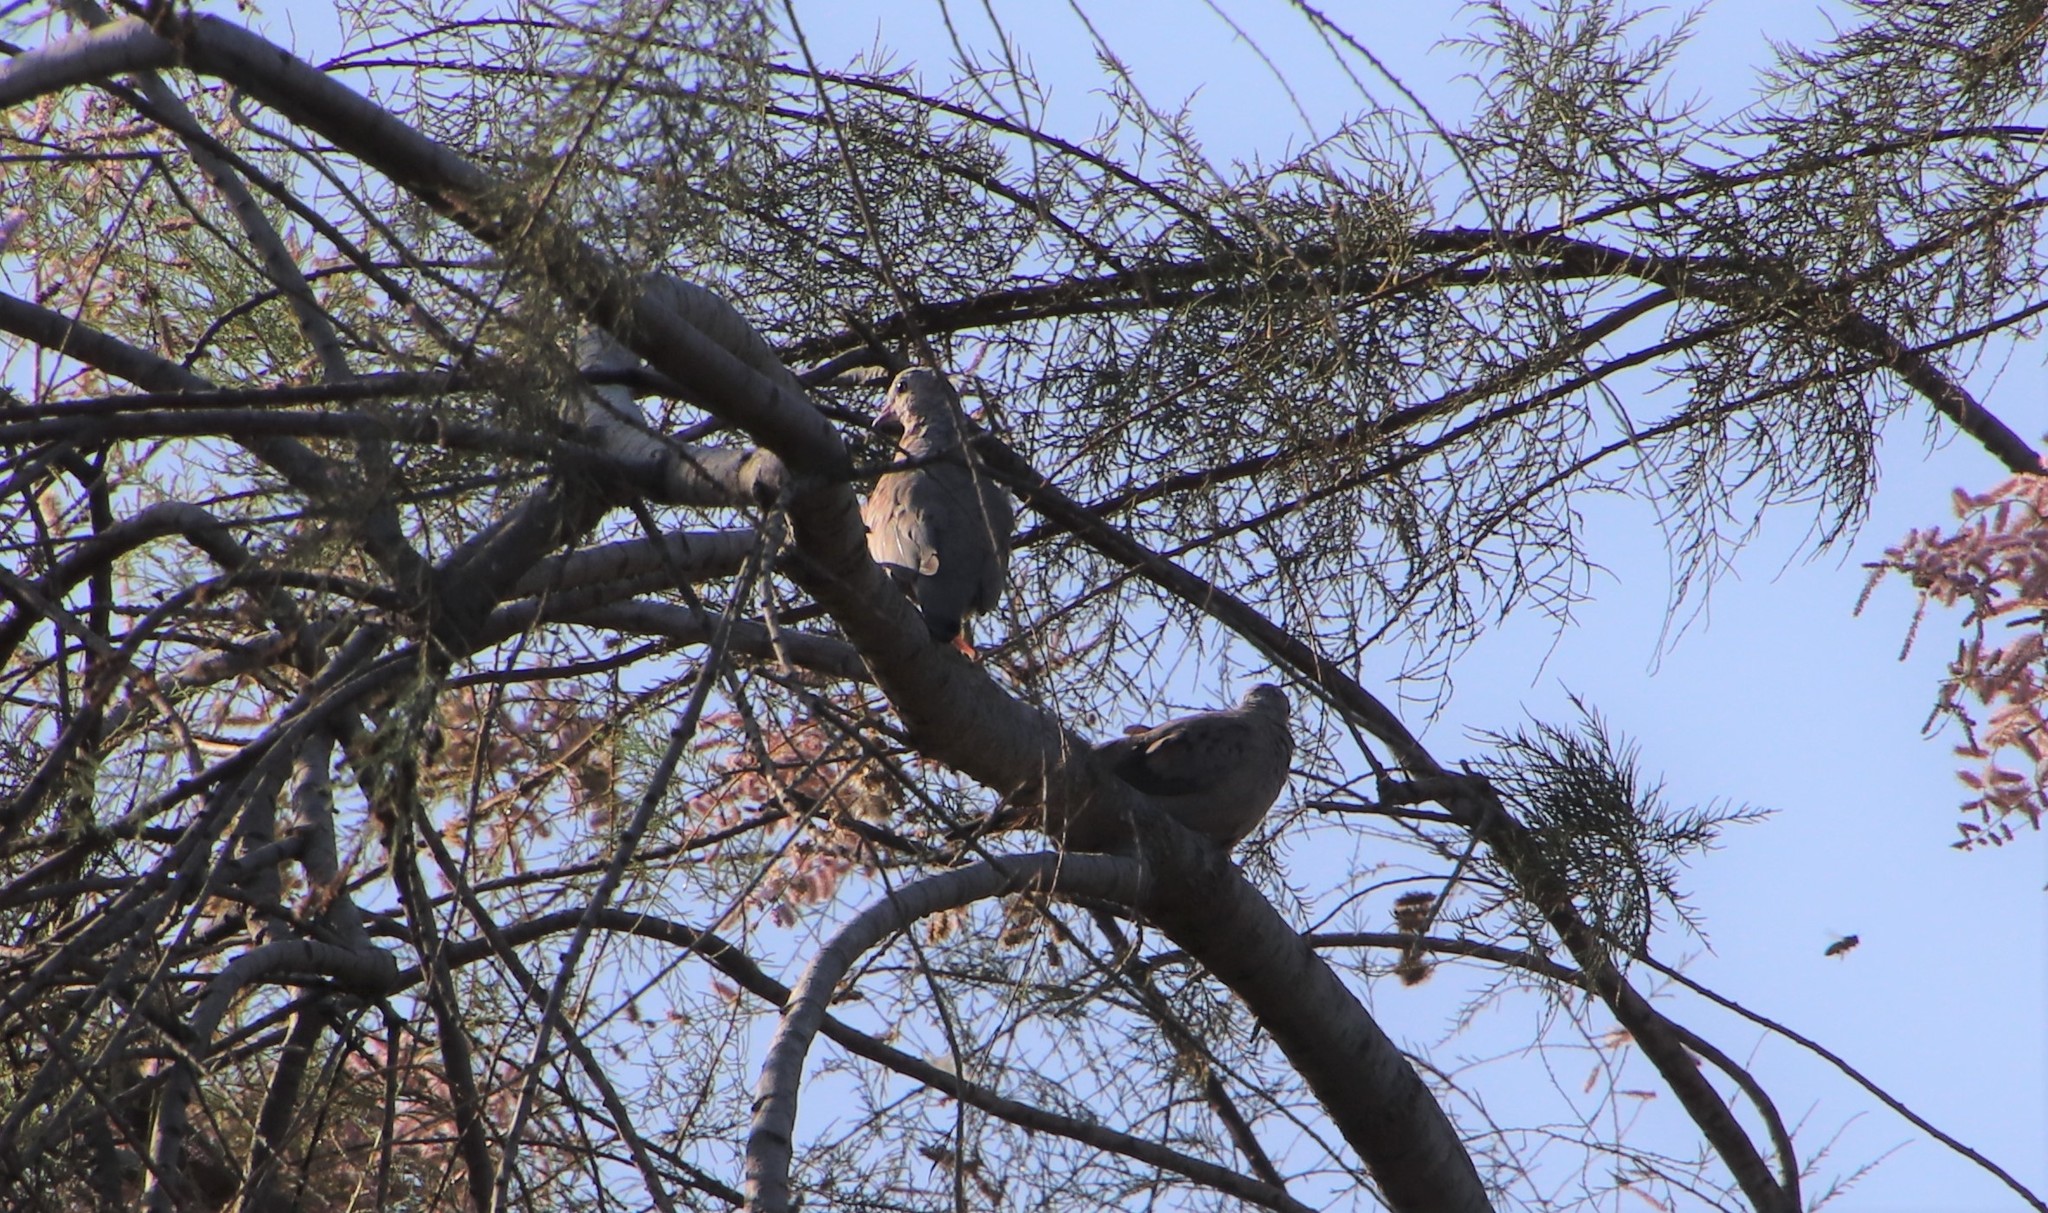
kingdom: Animalia
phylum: Chordata
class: Aves
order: Columbiformes
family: Columbidae
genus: Columbina
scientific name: Columbina passerina
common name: Common ground-dove
